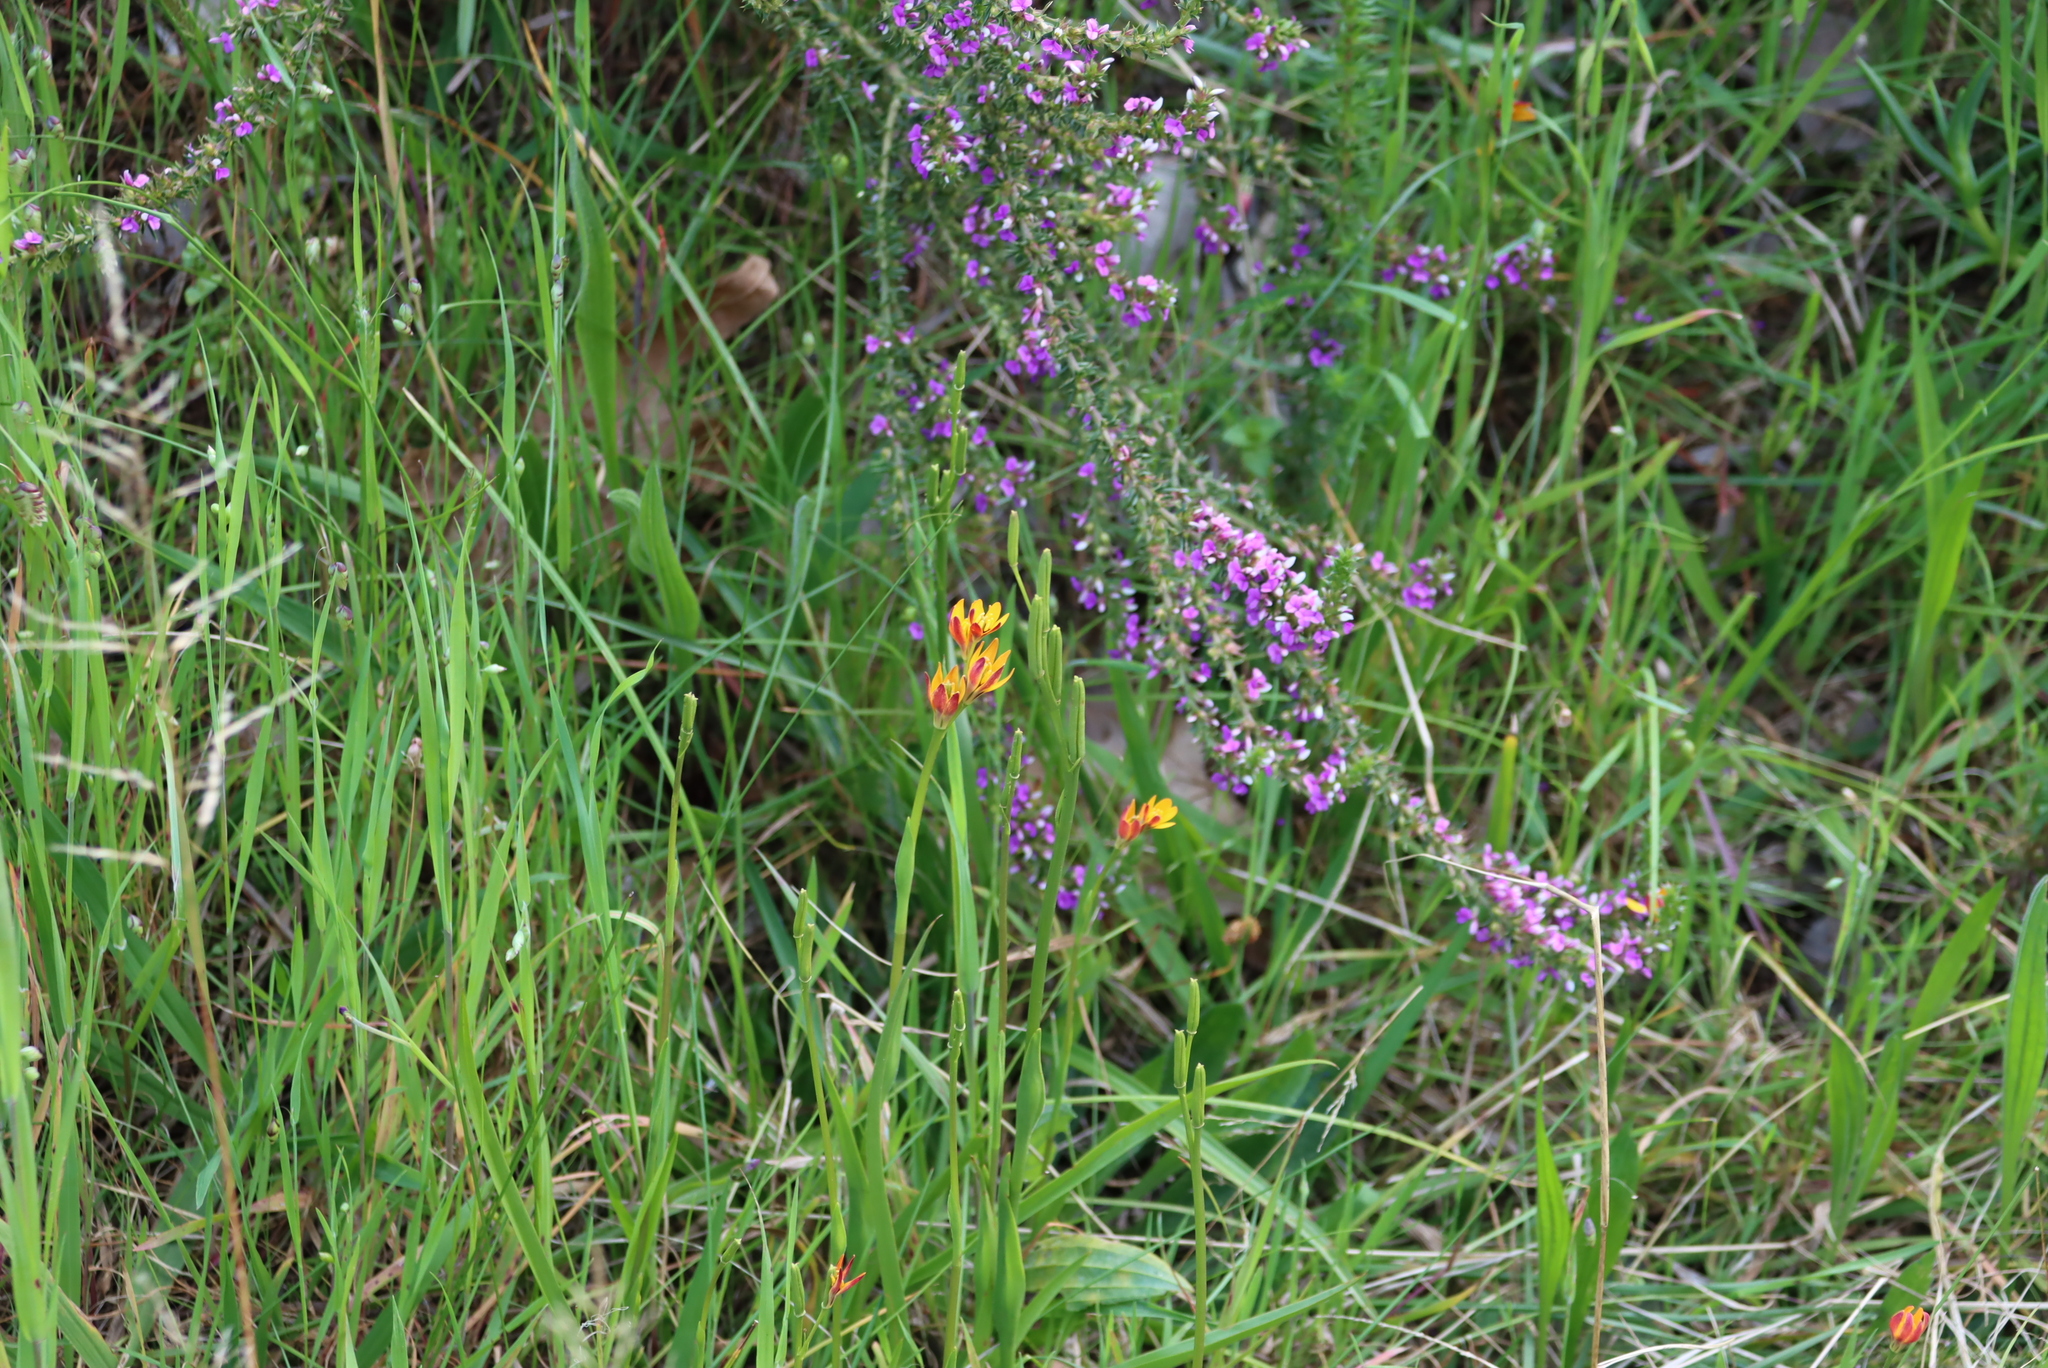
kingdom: Plantae
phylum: Tracheophyta
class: Liliopsida
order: Liliales
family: Colchicaceae
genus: Baeometra
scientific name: Baeometra uniflora
